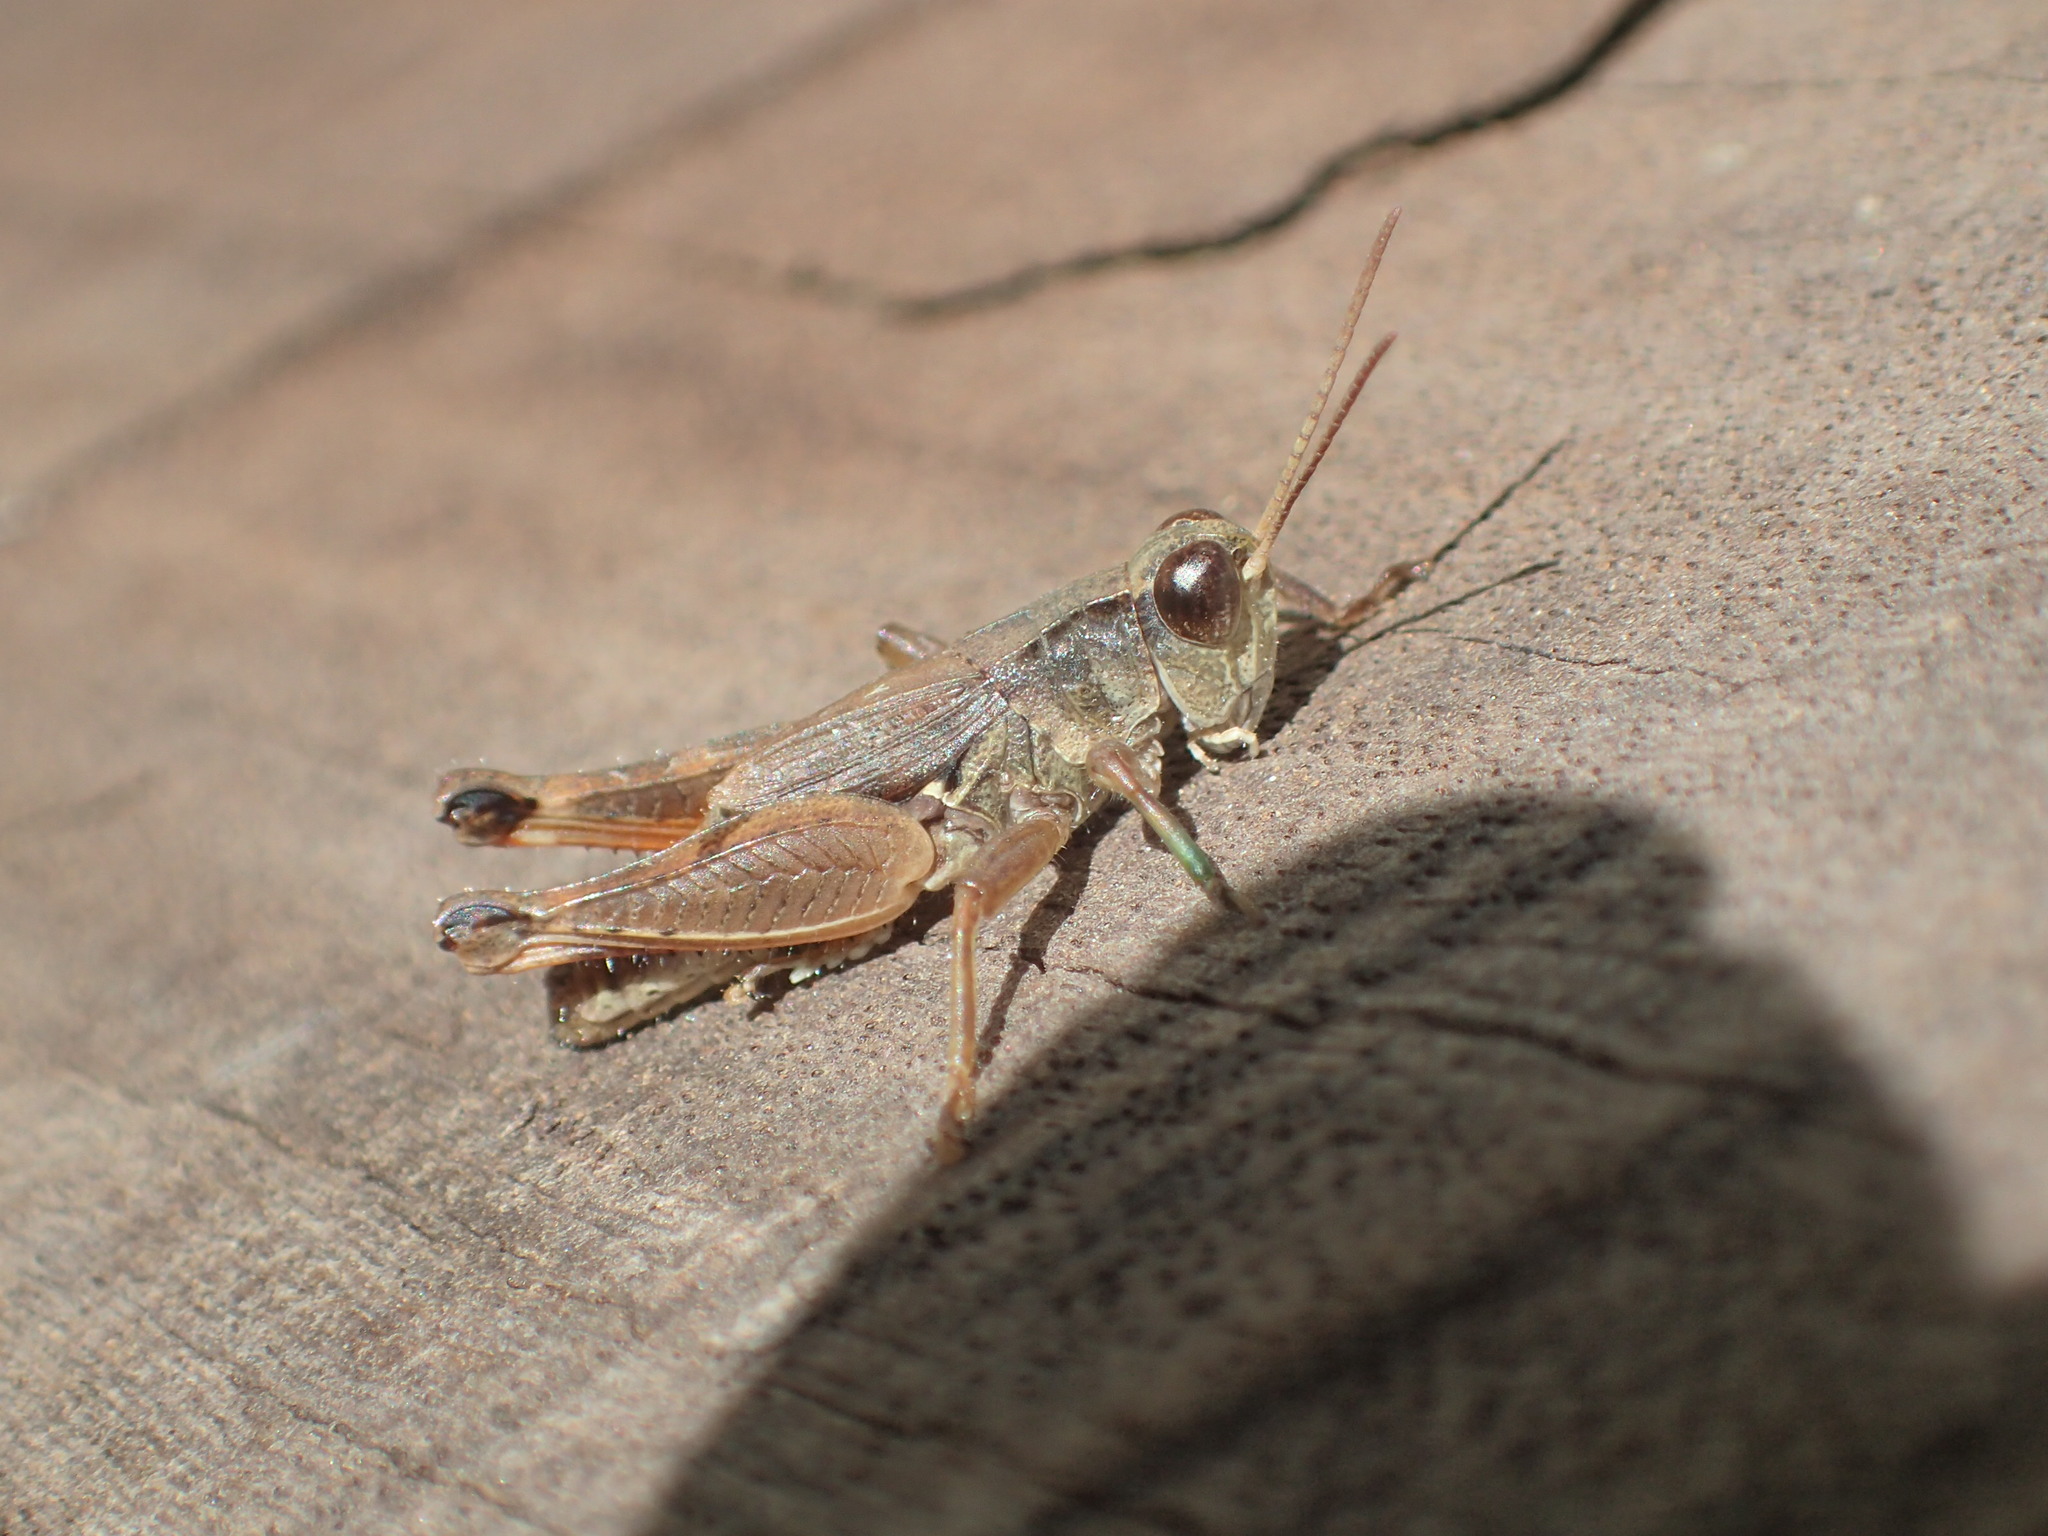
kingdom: Animalia
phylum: Arthropoda
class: Insecta
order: Orthoptera
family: Acrididae
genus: Phaulacridium
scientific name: Phaulacridium vittatum
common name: Wingless grasshopper
